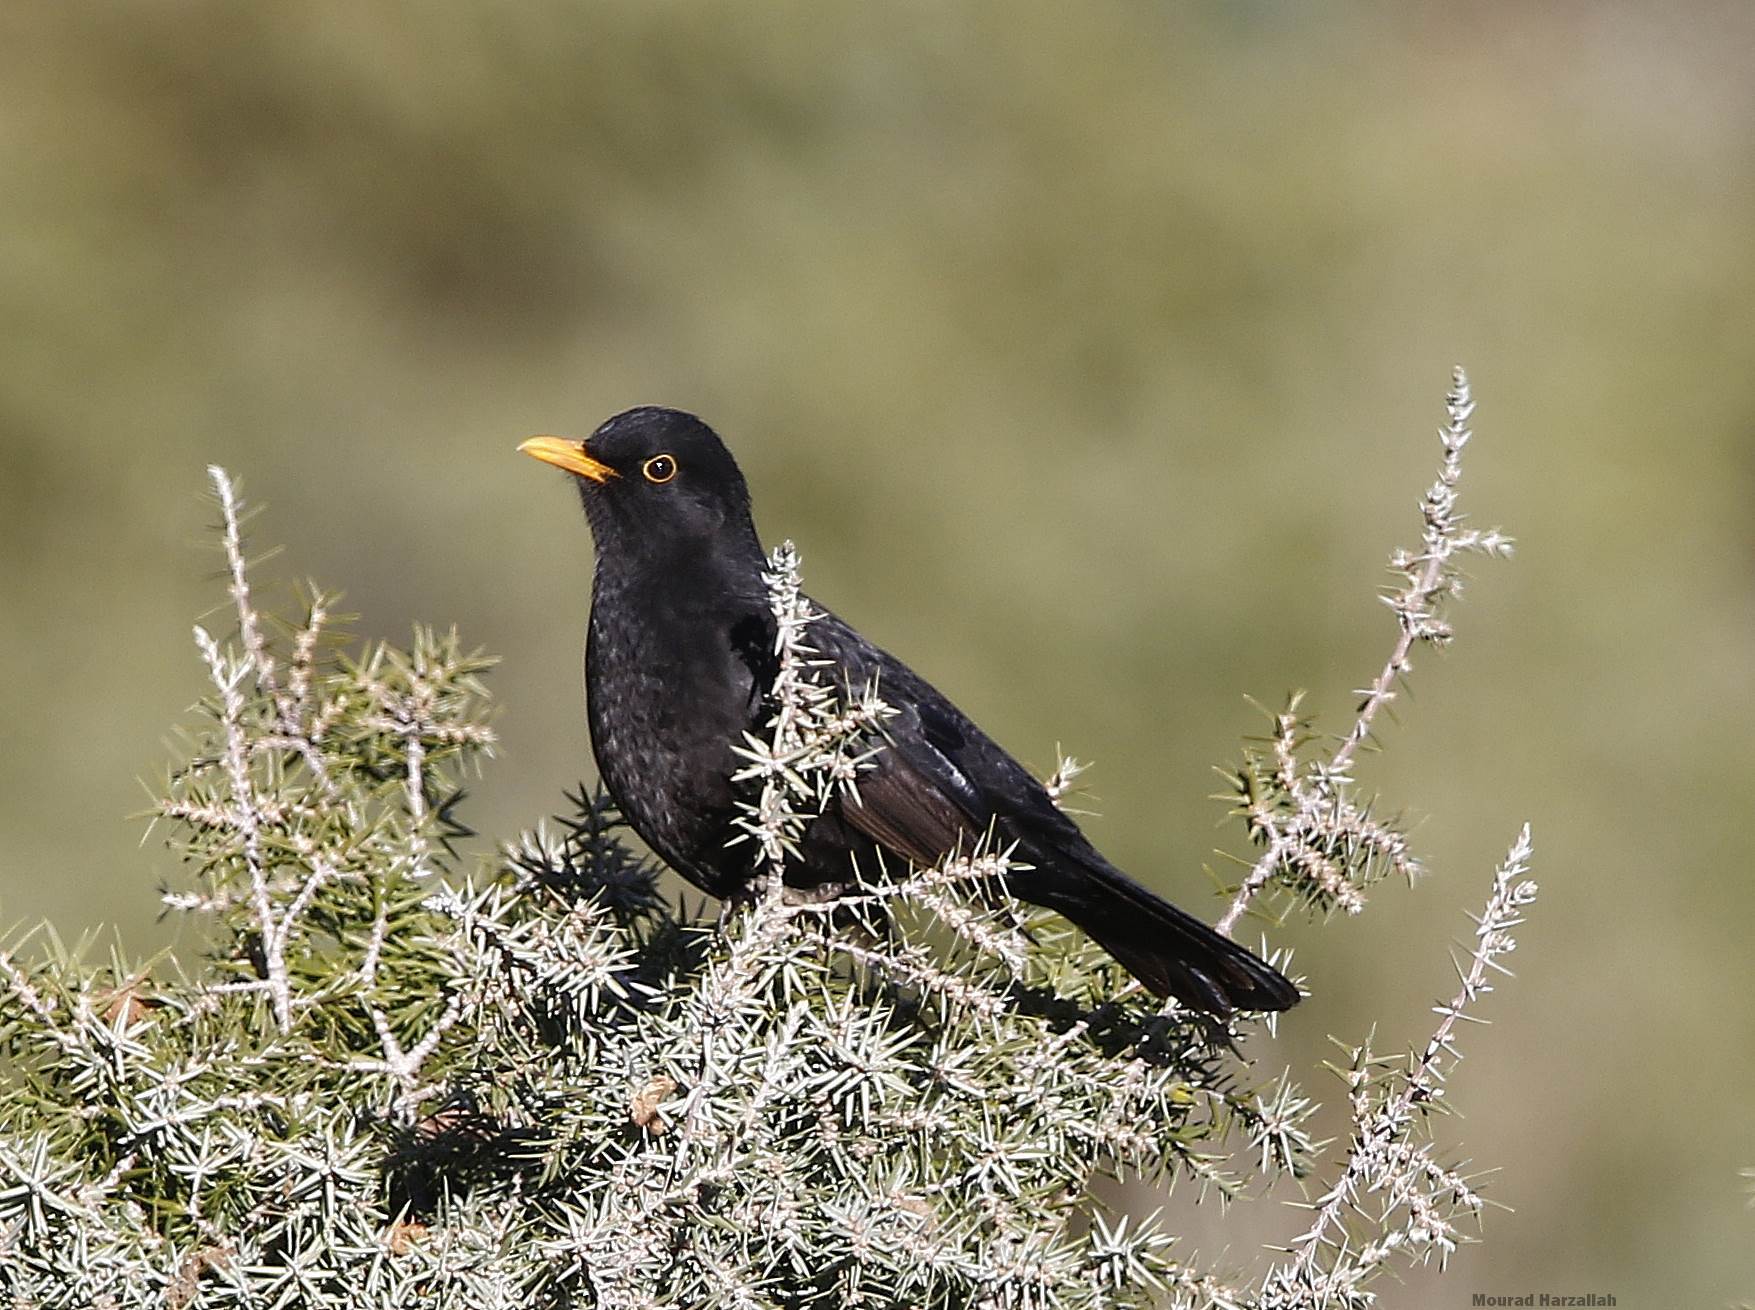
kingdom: Animalia
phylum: Chordata
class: Aves
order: Passeriformes
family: Turdidae
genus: Turdus
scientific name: Turdus merula
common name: Common blackbird
